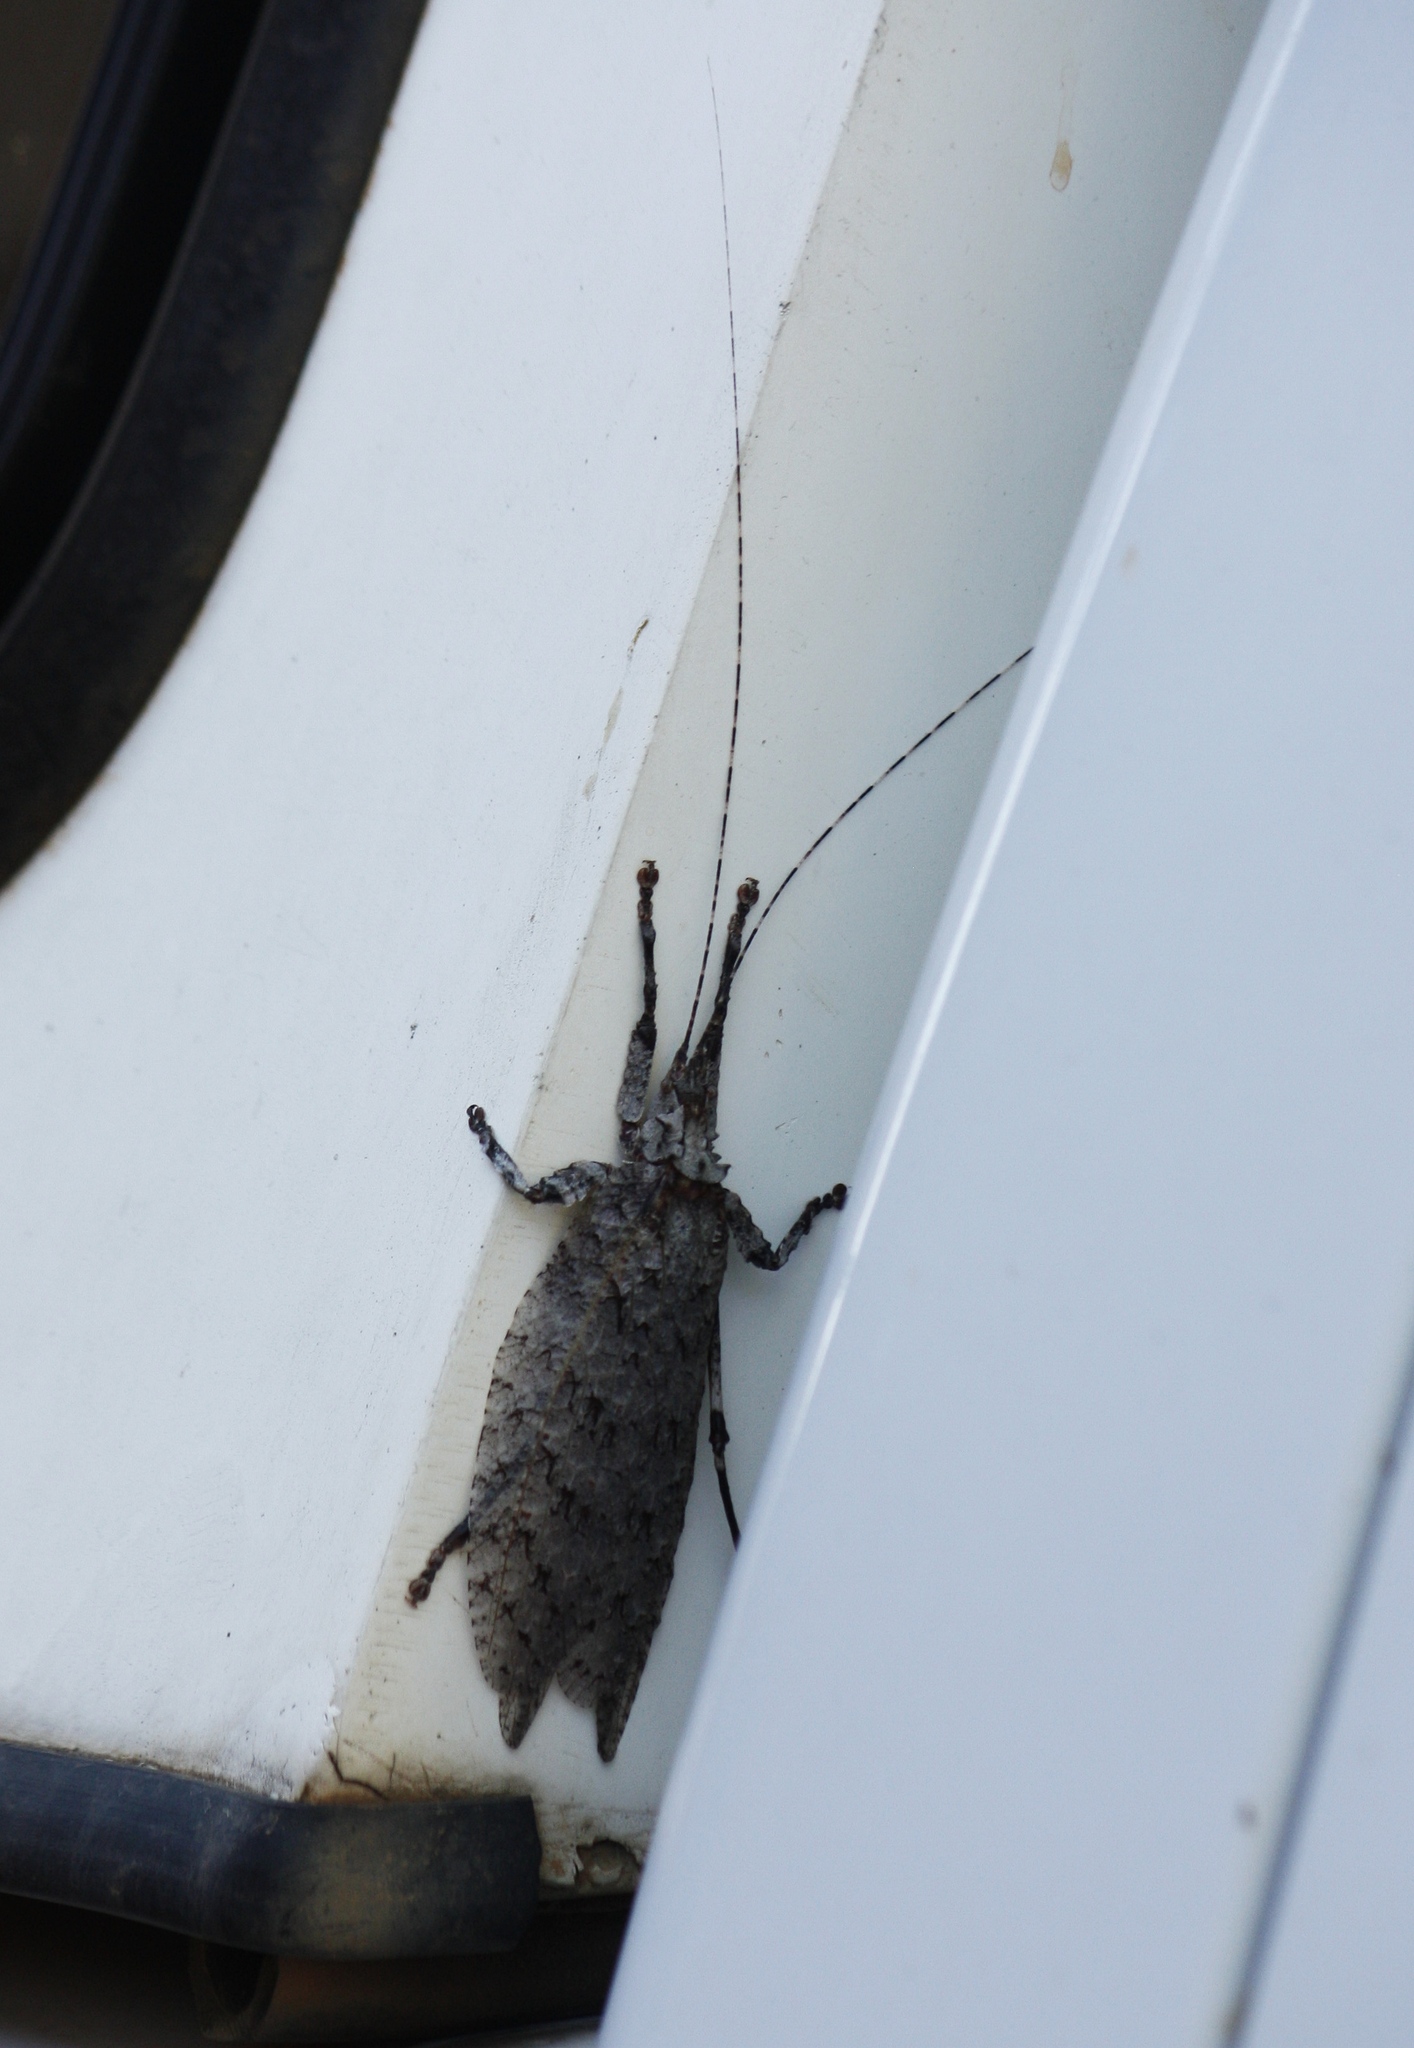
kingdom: Animalia
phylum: Arthropoda
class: Insecta
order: Orthoptera
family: Tettigoniidae
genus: Cymatomera
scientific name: Cymatomera denticollis
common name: Common bark katydid
